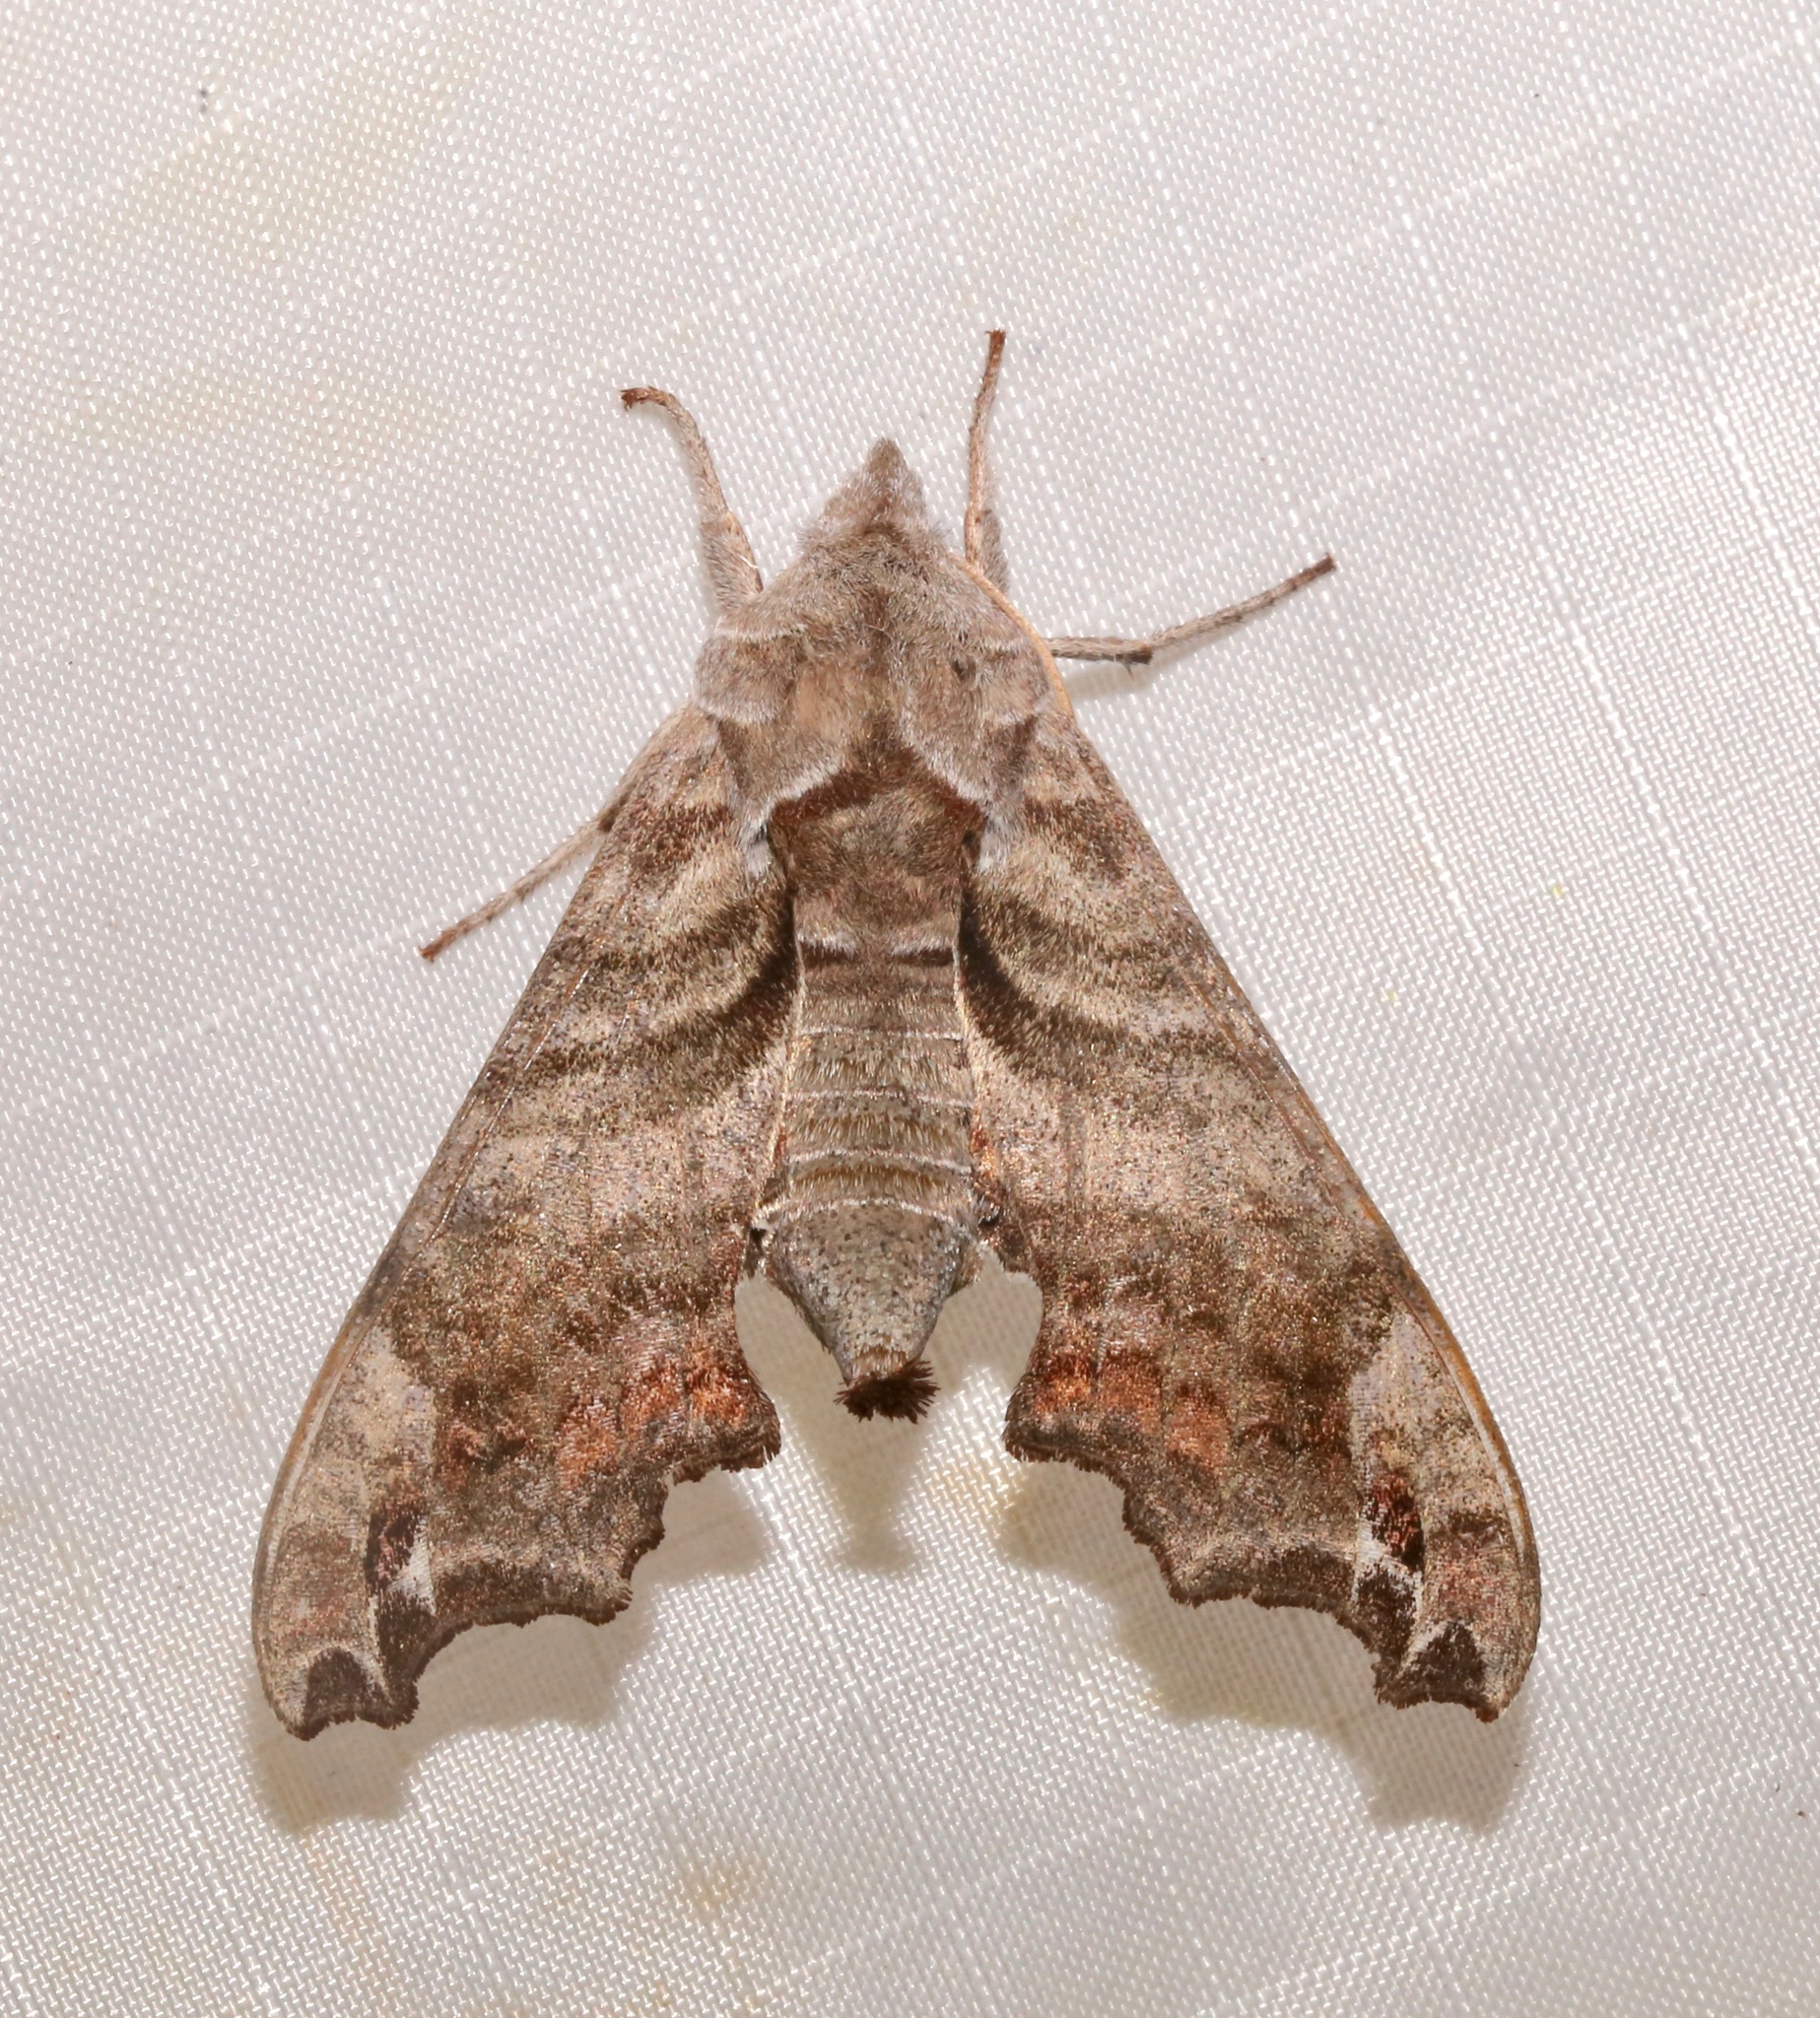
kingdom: Animalia
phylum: Arthropoda
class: Insecta
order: Lepidoptera
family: Sphingidae
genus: Deidamia
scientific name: Deidamia inscriptum
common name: Lettered sphinx
